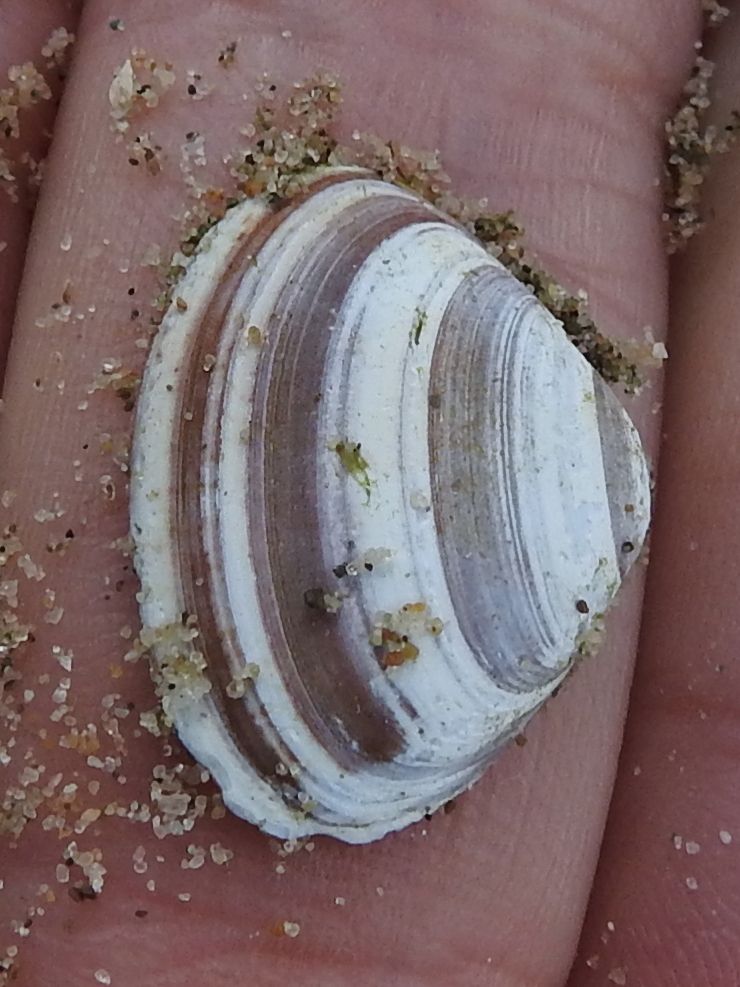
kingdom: Animalia
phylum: Mollusca
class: Bivalvia
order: Venerida
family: Mactridae
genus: Spisula
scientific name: Spisula elliptica
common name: Elliptic trough shell
